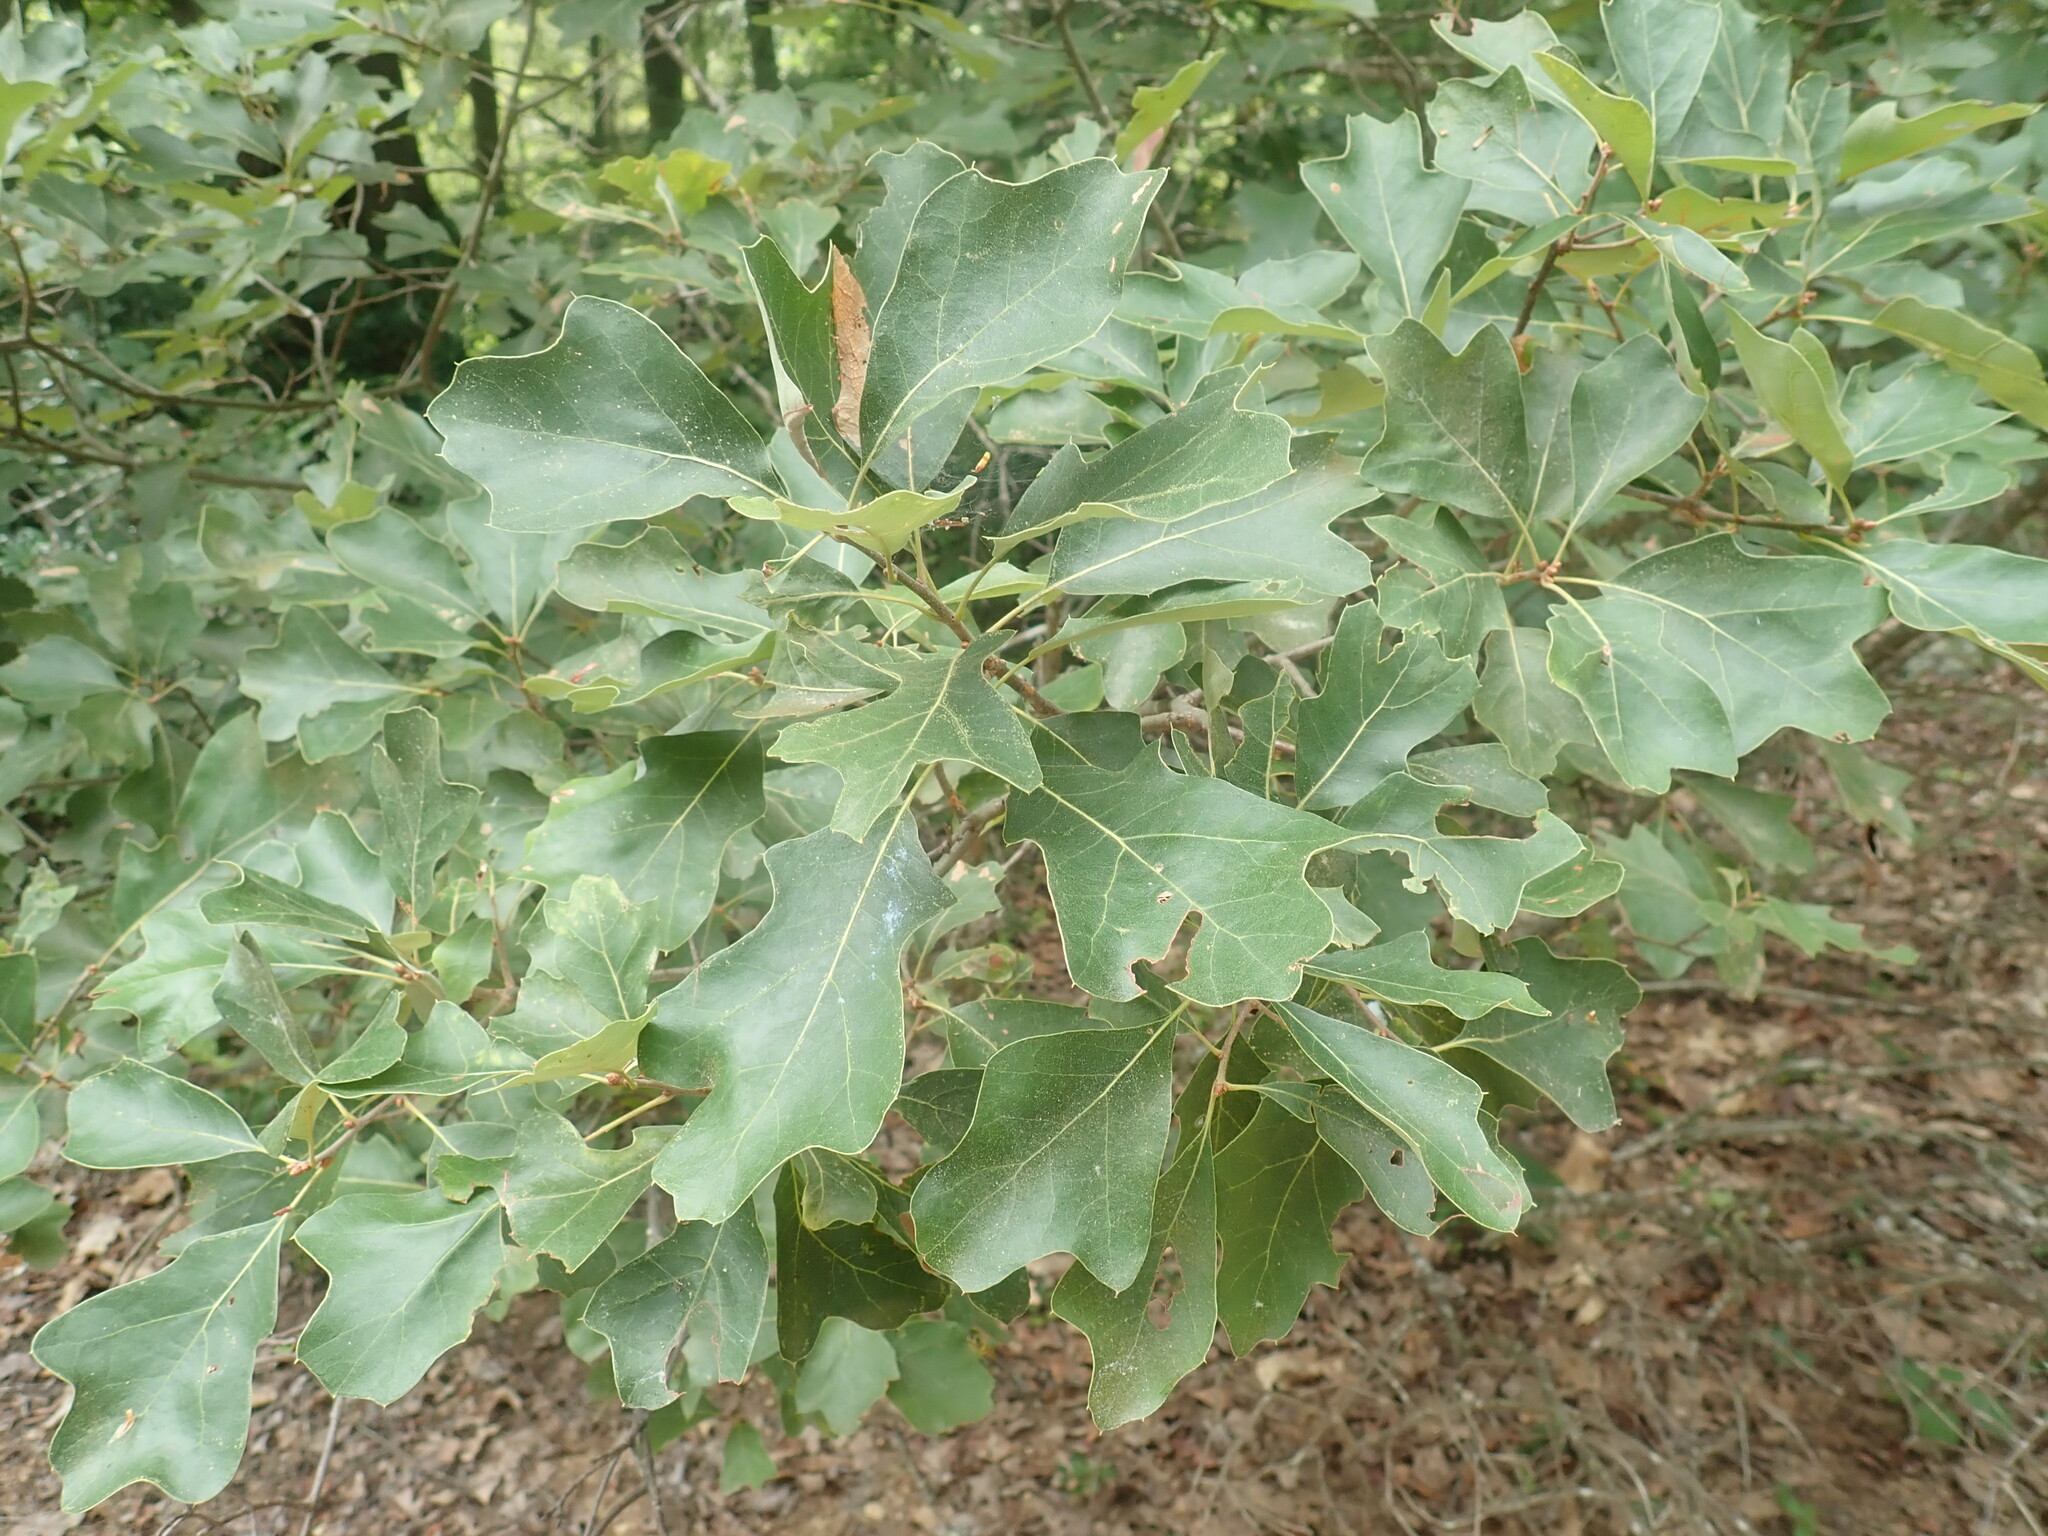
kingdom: Plantae
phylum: Tracheophyta
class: Magnoliopsida
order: Fagales
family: Fagaceae
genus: Quercus
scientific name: Quercus ilicifolia
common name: Bear oak
